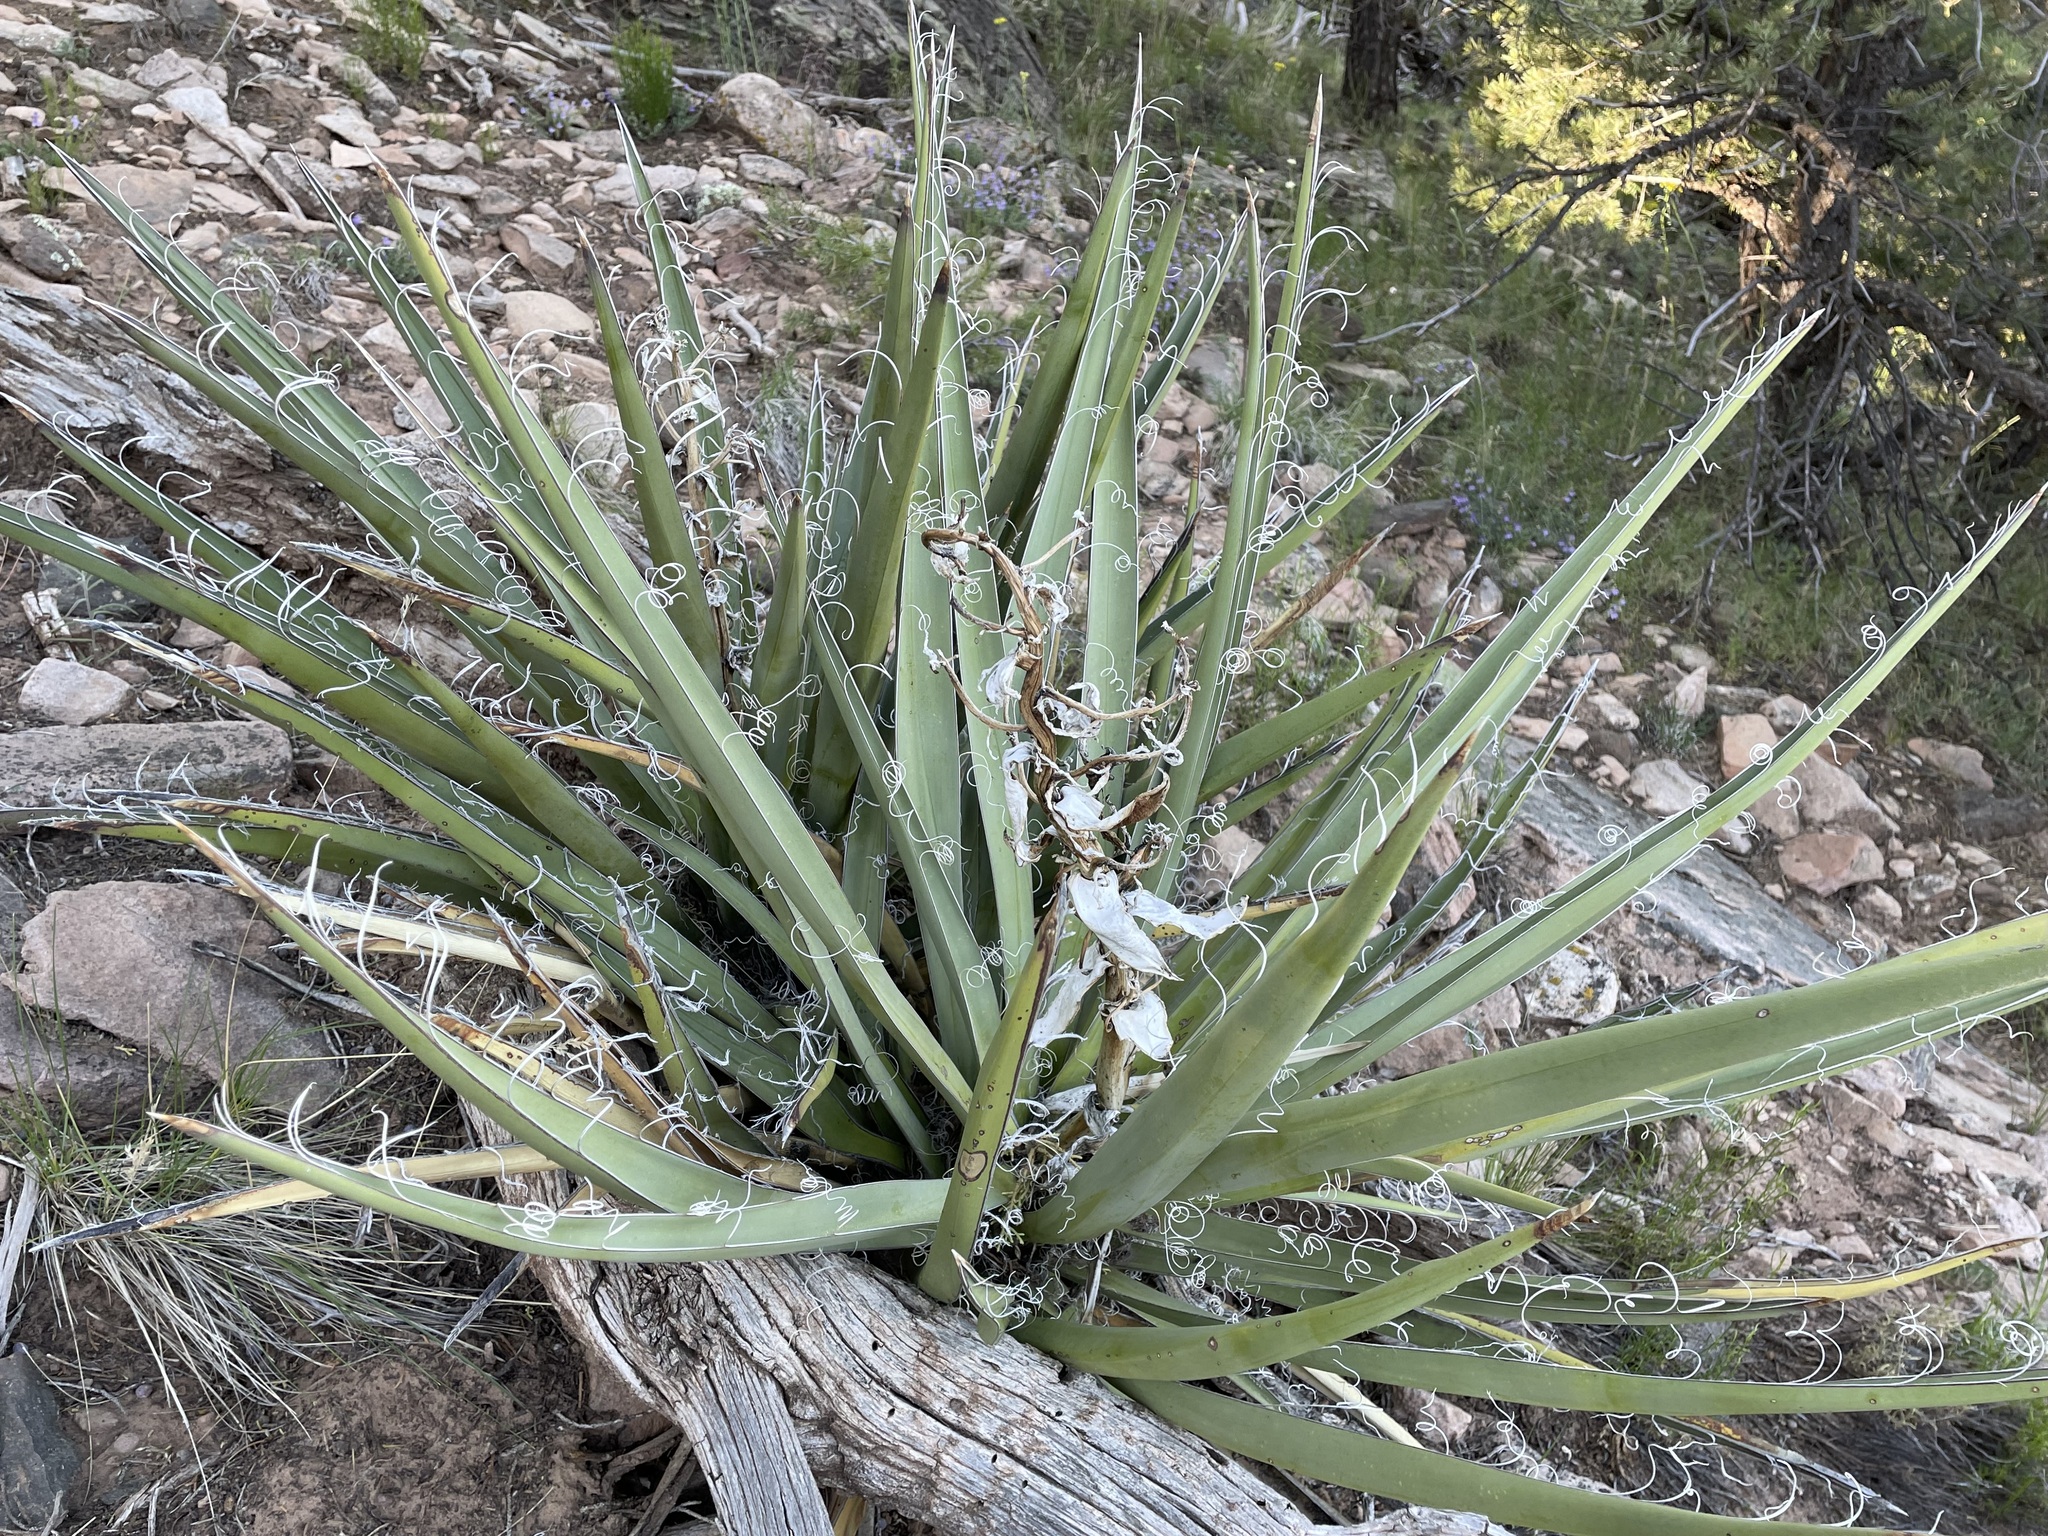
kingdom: Plantae
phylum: Tracheophyta
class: Liliopsida
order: Asparagales
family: Asparagaceae
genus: Yucca
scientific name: Yucca baccata
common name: Banana yucca
